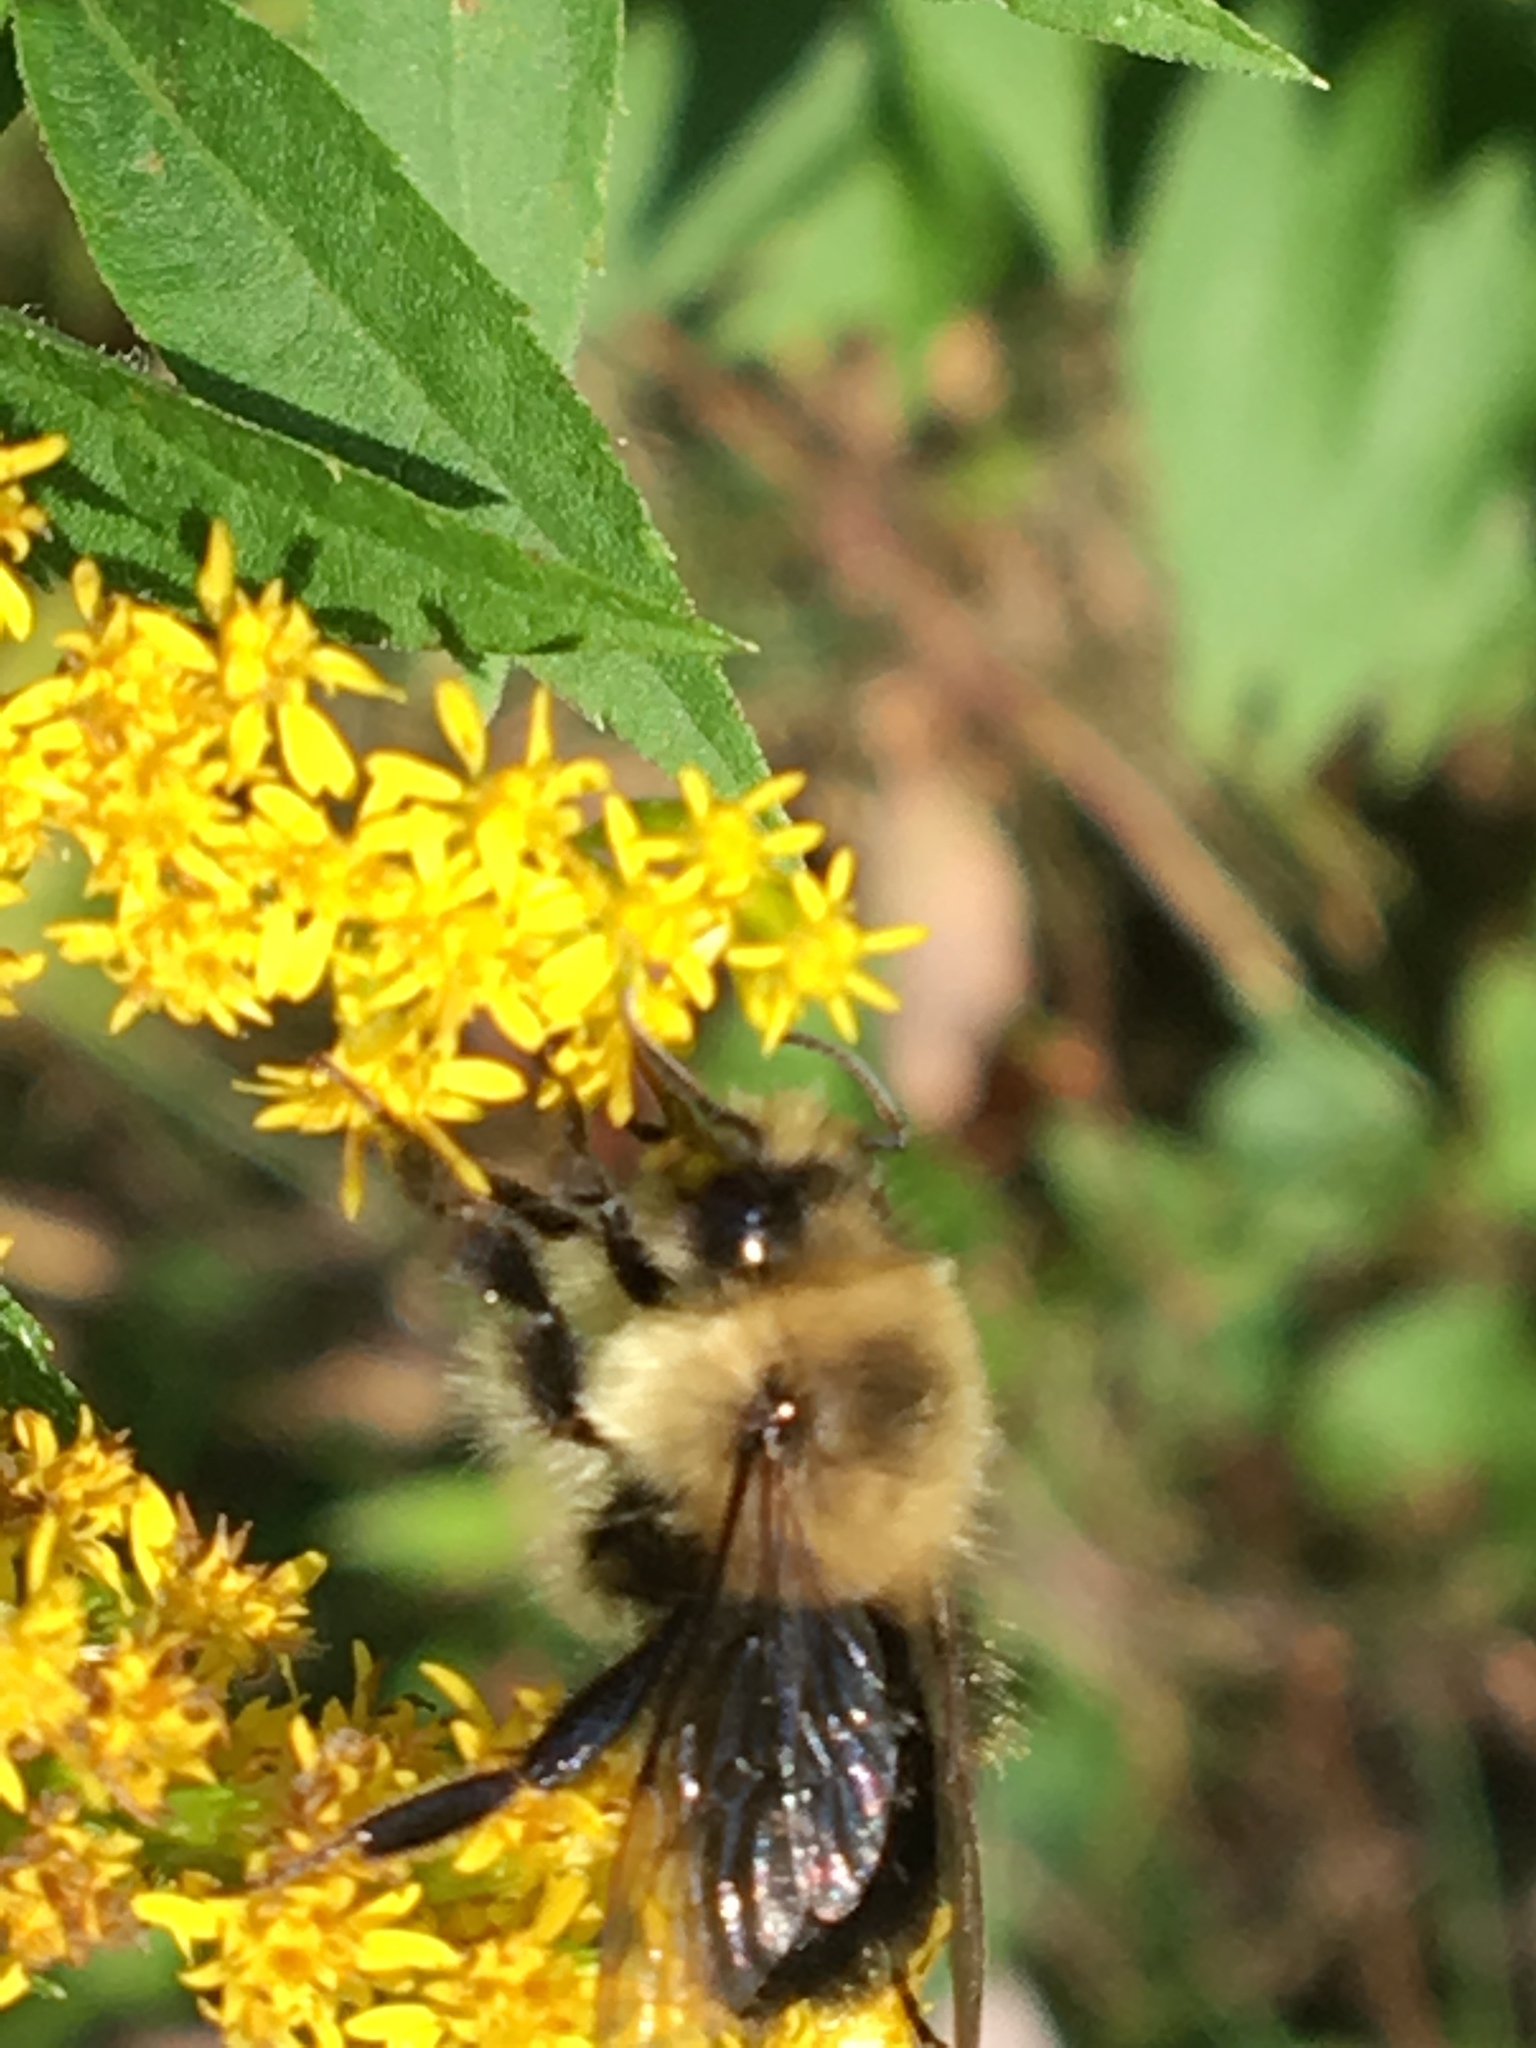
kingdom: Animalia
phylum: Arthropoda
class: Insecta
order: Hymenoptera
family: Apidae
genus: Bombus
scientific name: Bombus impatiens
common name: Common eastern bumble bee
